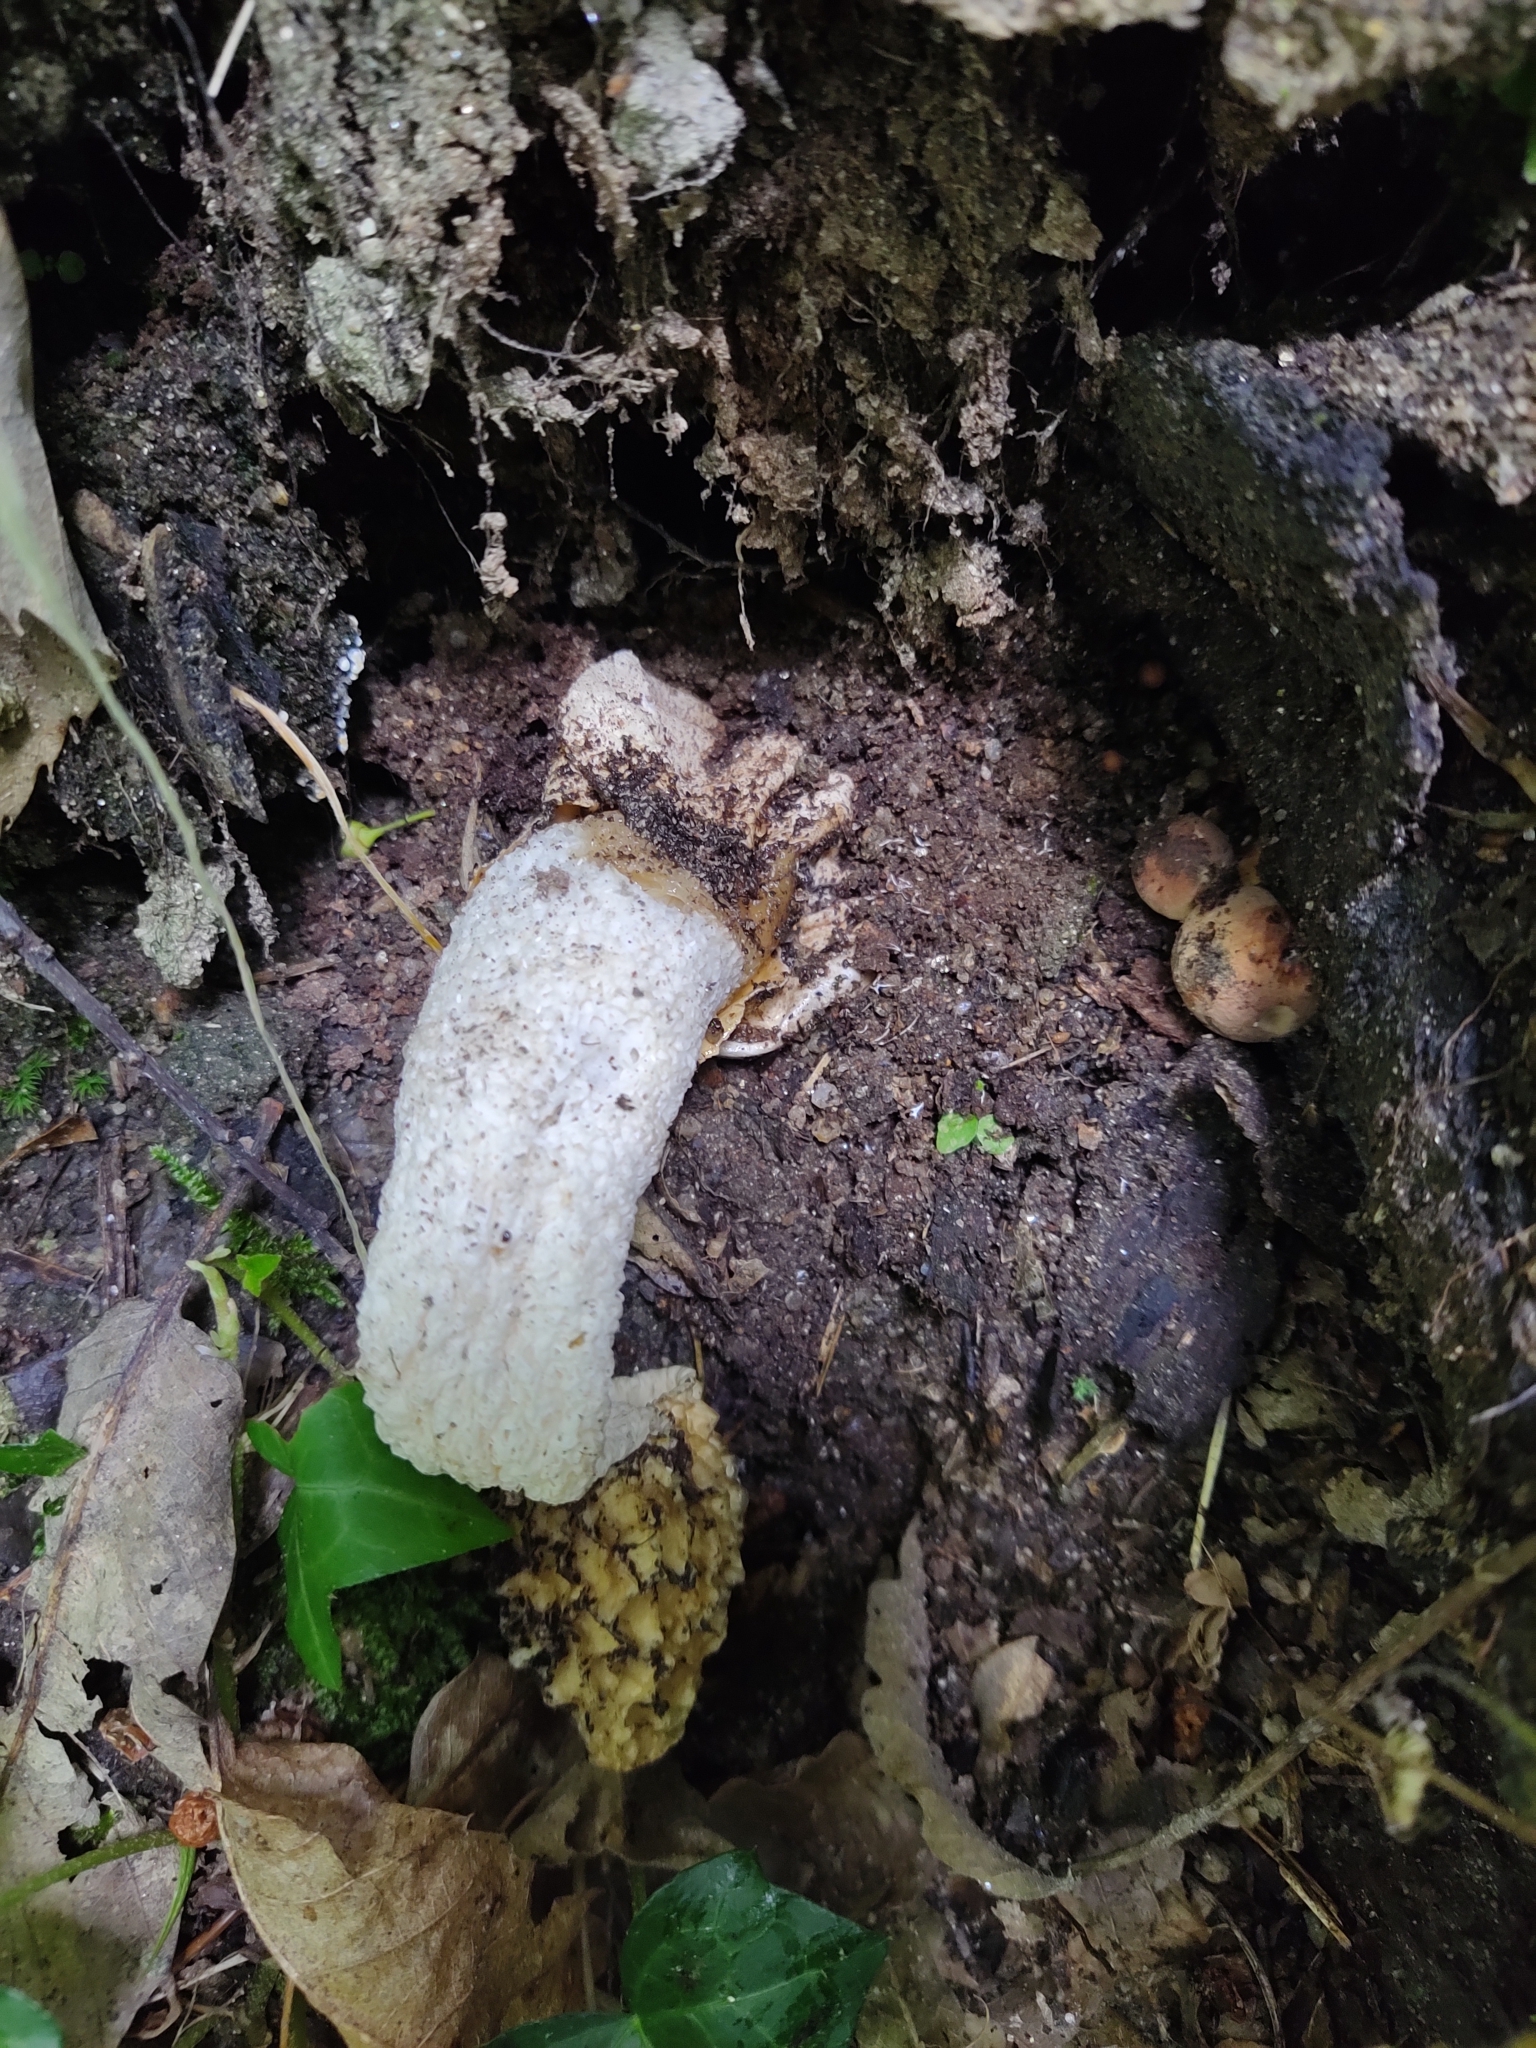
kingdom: Fungi
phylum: Basidiomycota
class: Agaricomycetes
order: Phallales
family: Phallaceae
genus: Phallus
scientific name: Phallus impudicus
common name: Common stinkhorn
